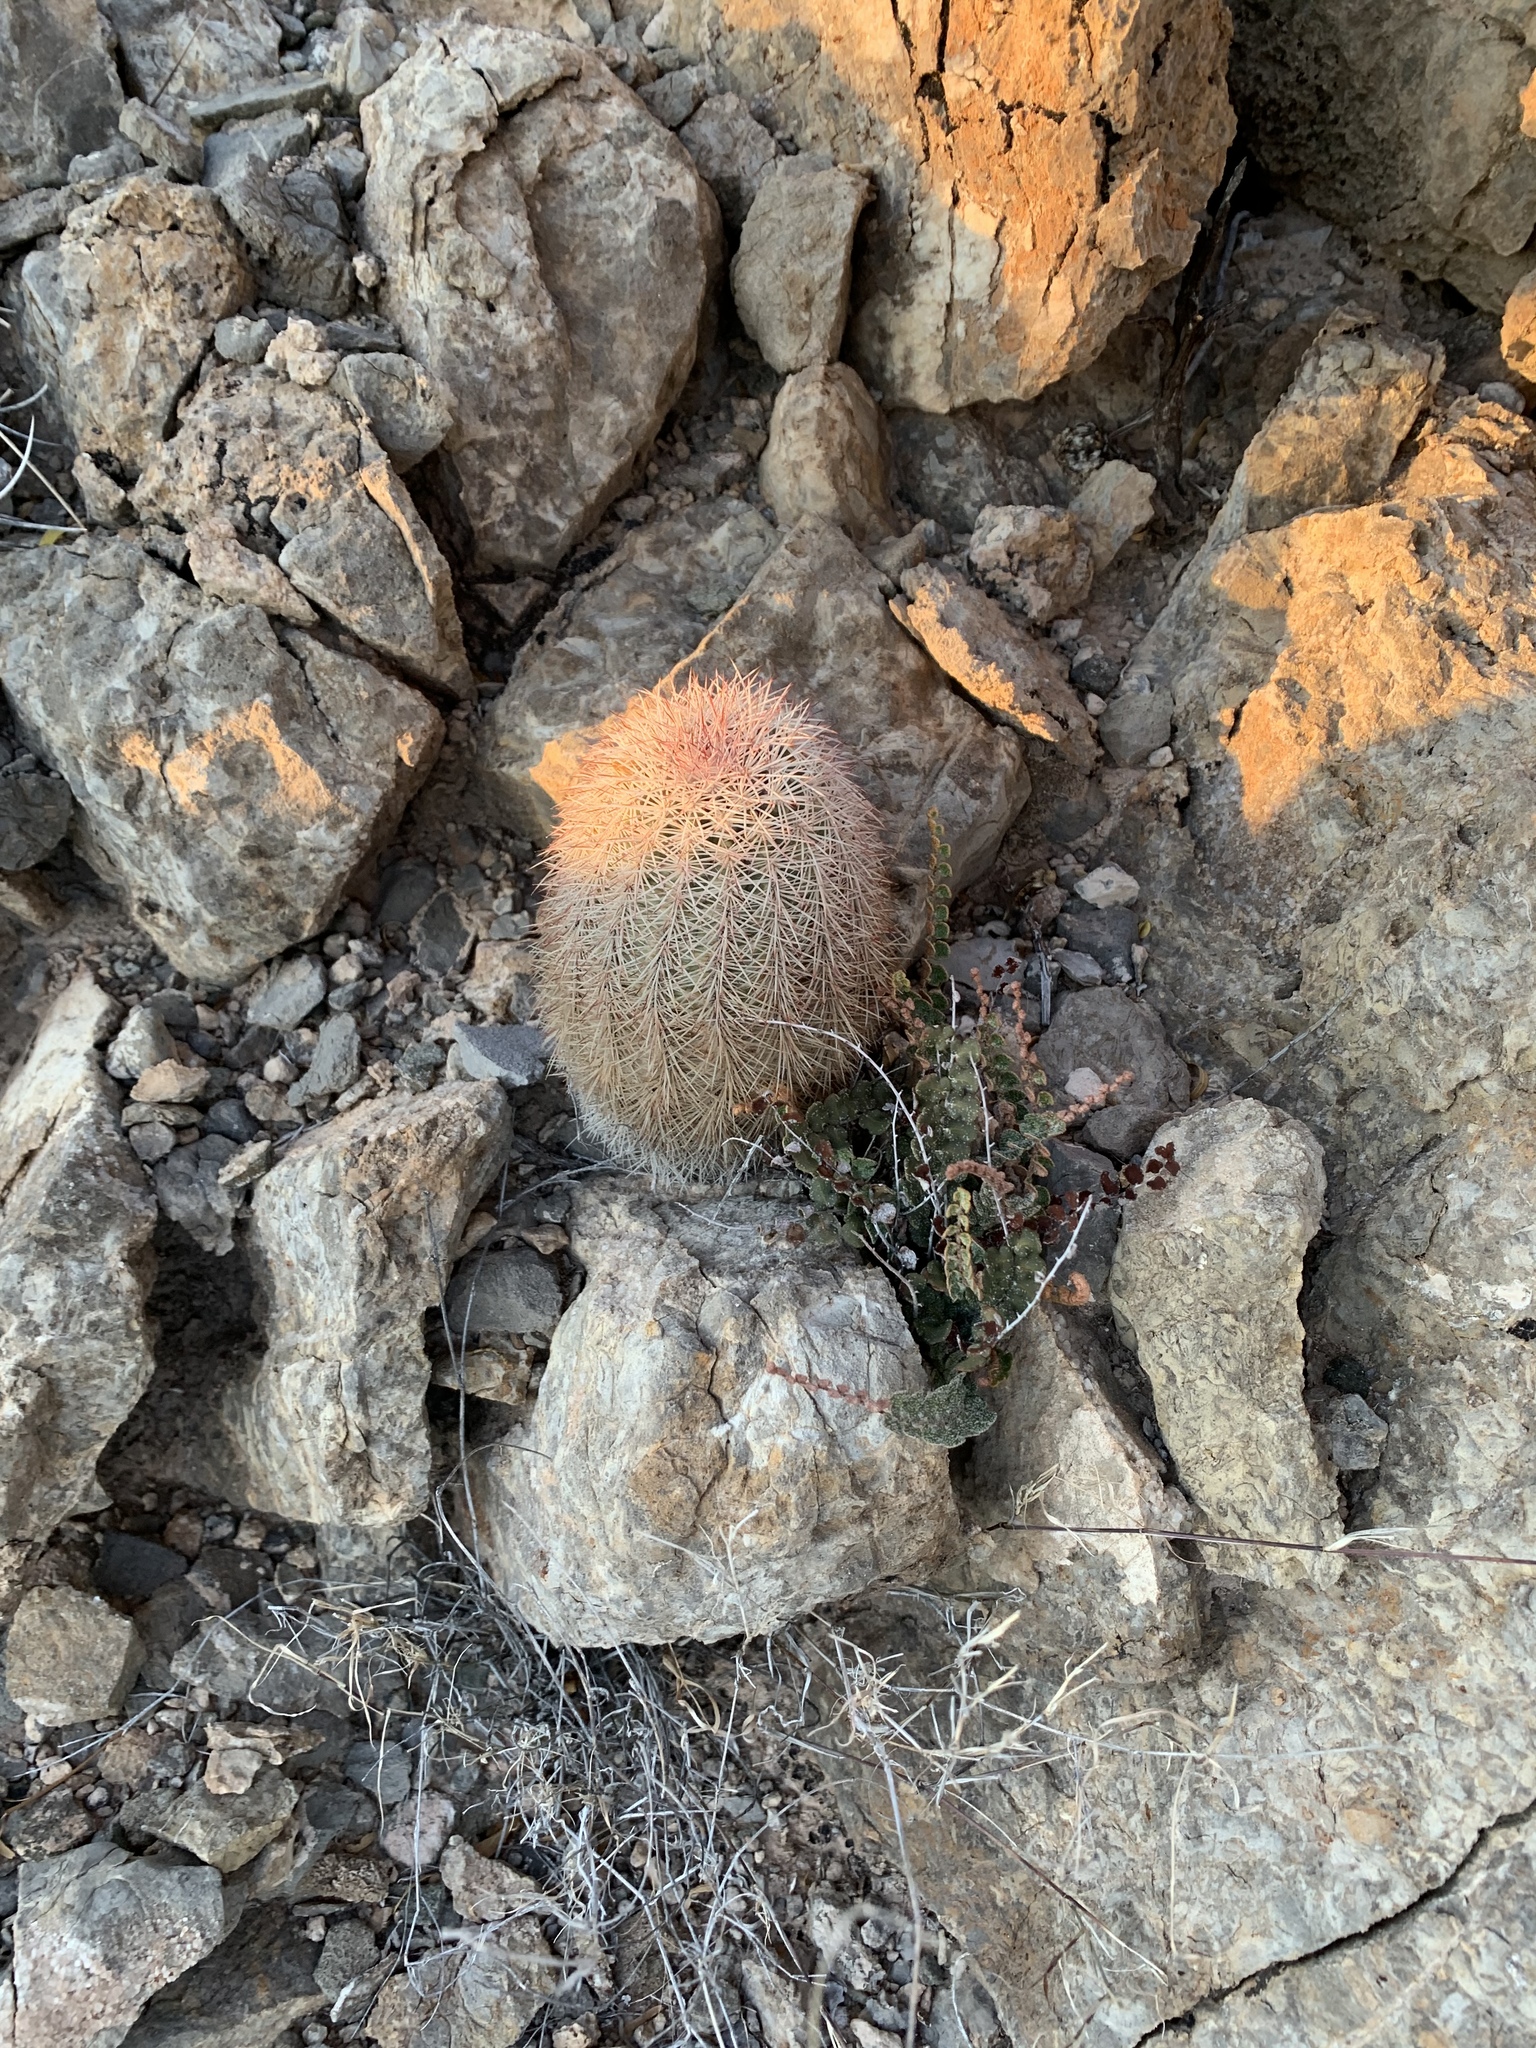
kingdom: Plantae
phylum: Tracheophyta
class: Magnoliopsida
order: Caryophyllales
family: Cactaceae
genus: Echinocereus
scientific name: Echinocereus dasyacanthus
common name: Spiny hedgehog cactus
